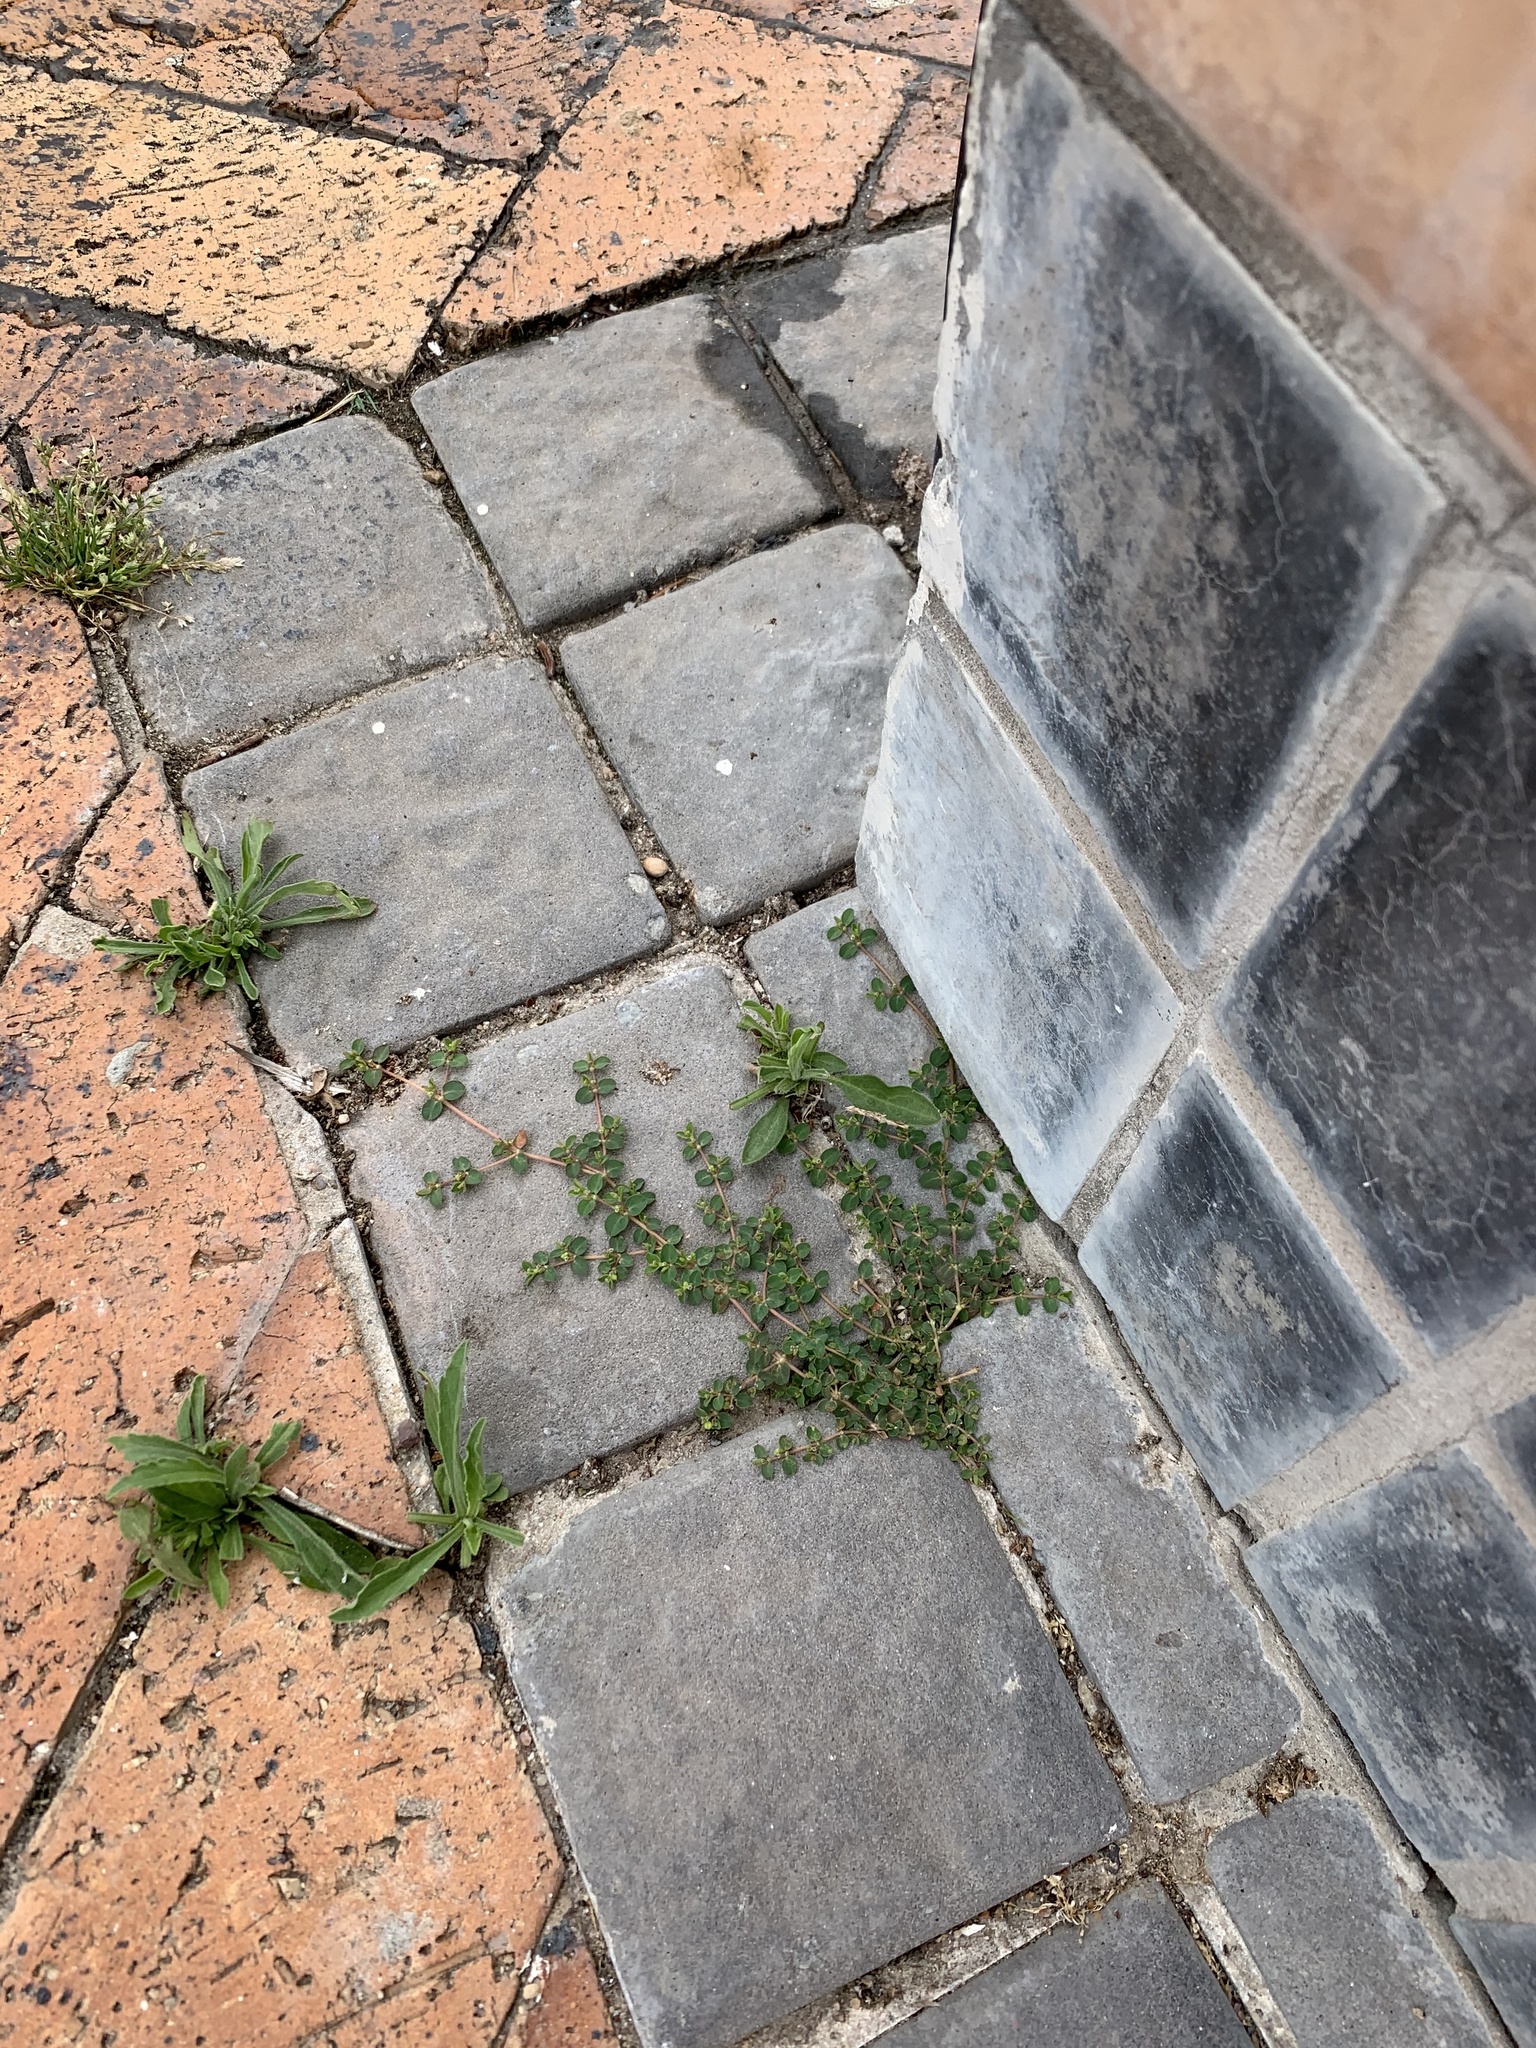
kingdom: Plantae
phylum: Tracheophyta
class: Magnoliopsida
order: Malpighiales
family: Euphorbiaceae
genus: Euphorbia
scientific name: Euphorbia serpens
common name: Matted sandmat
